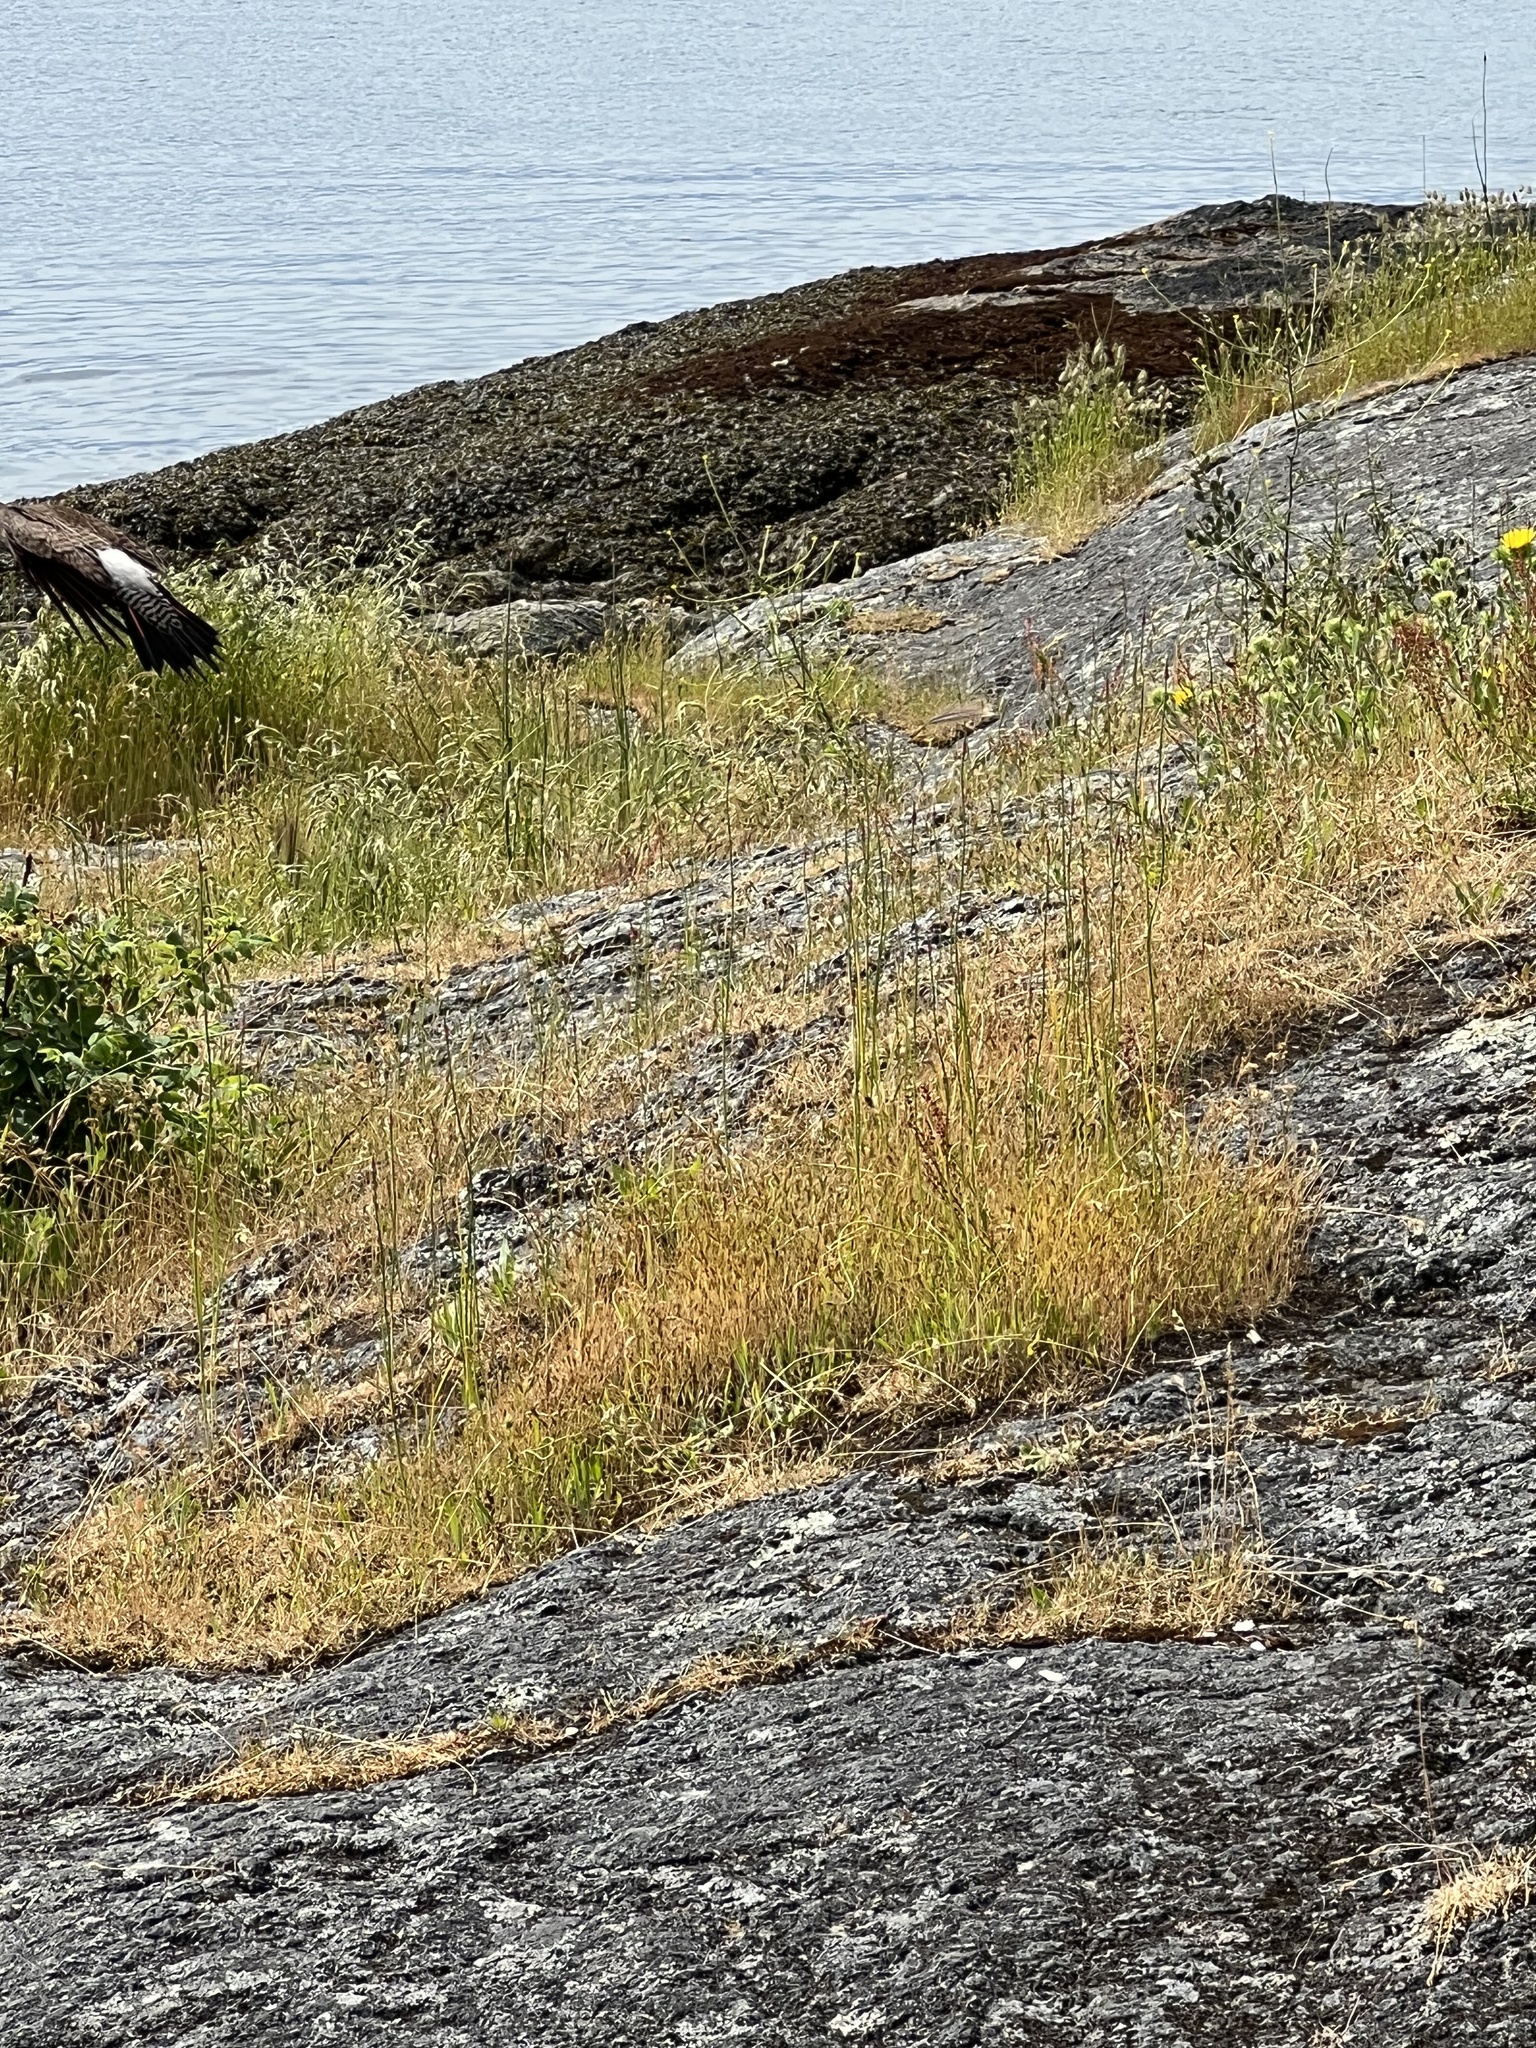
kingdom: Animalia
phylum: Chordata
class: Aves
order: Piciformes
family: Picidae
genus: Colaptes
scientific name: Colaptes auratus
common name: Northern flicker
